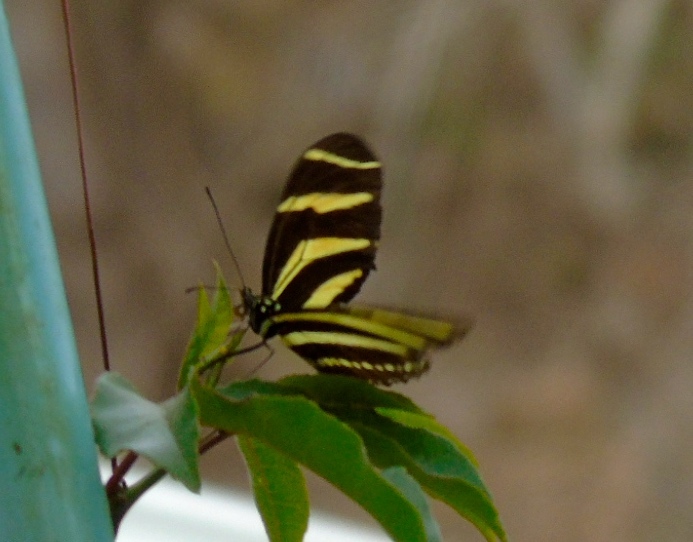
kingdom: Animalia
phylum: Arthropoda
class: Insecta
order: Lepidoptera
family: Nymphalidae
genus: Heliconius
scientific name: Heliconius charithonia
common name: Zebra long wing
